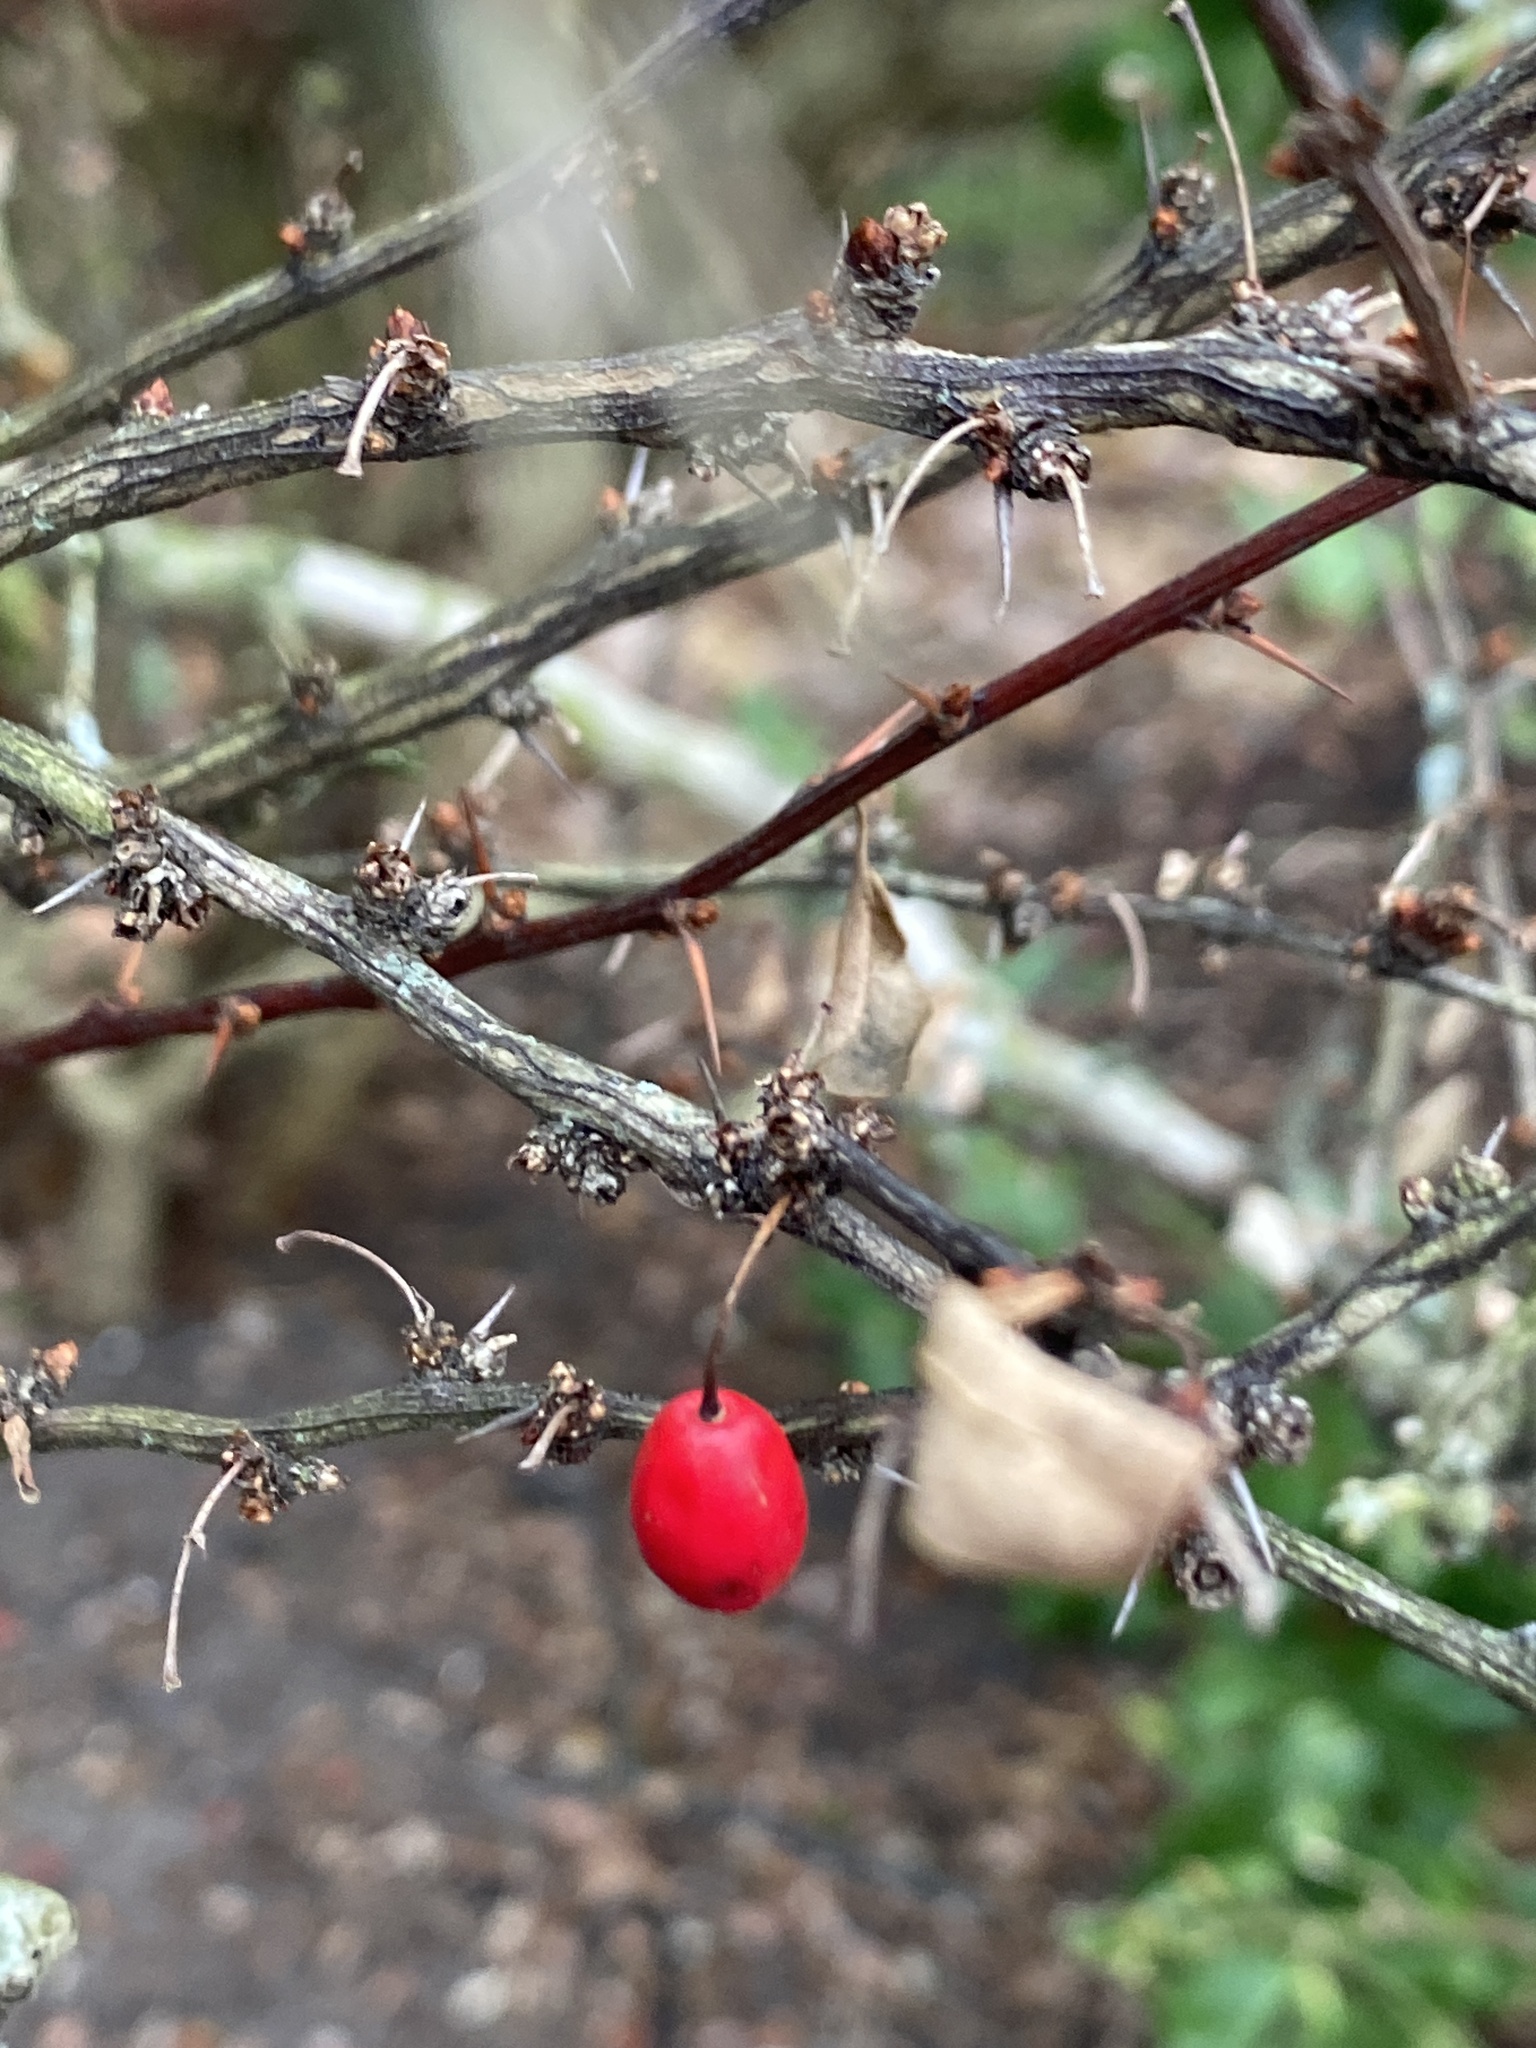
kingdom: Plantae
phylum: Tracheophyta
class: Magnoliopsida
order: Ranunculales
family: Berberidaceae
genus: Berberis
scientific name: Berberis thunbergii
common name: Japanese barberry
